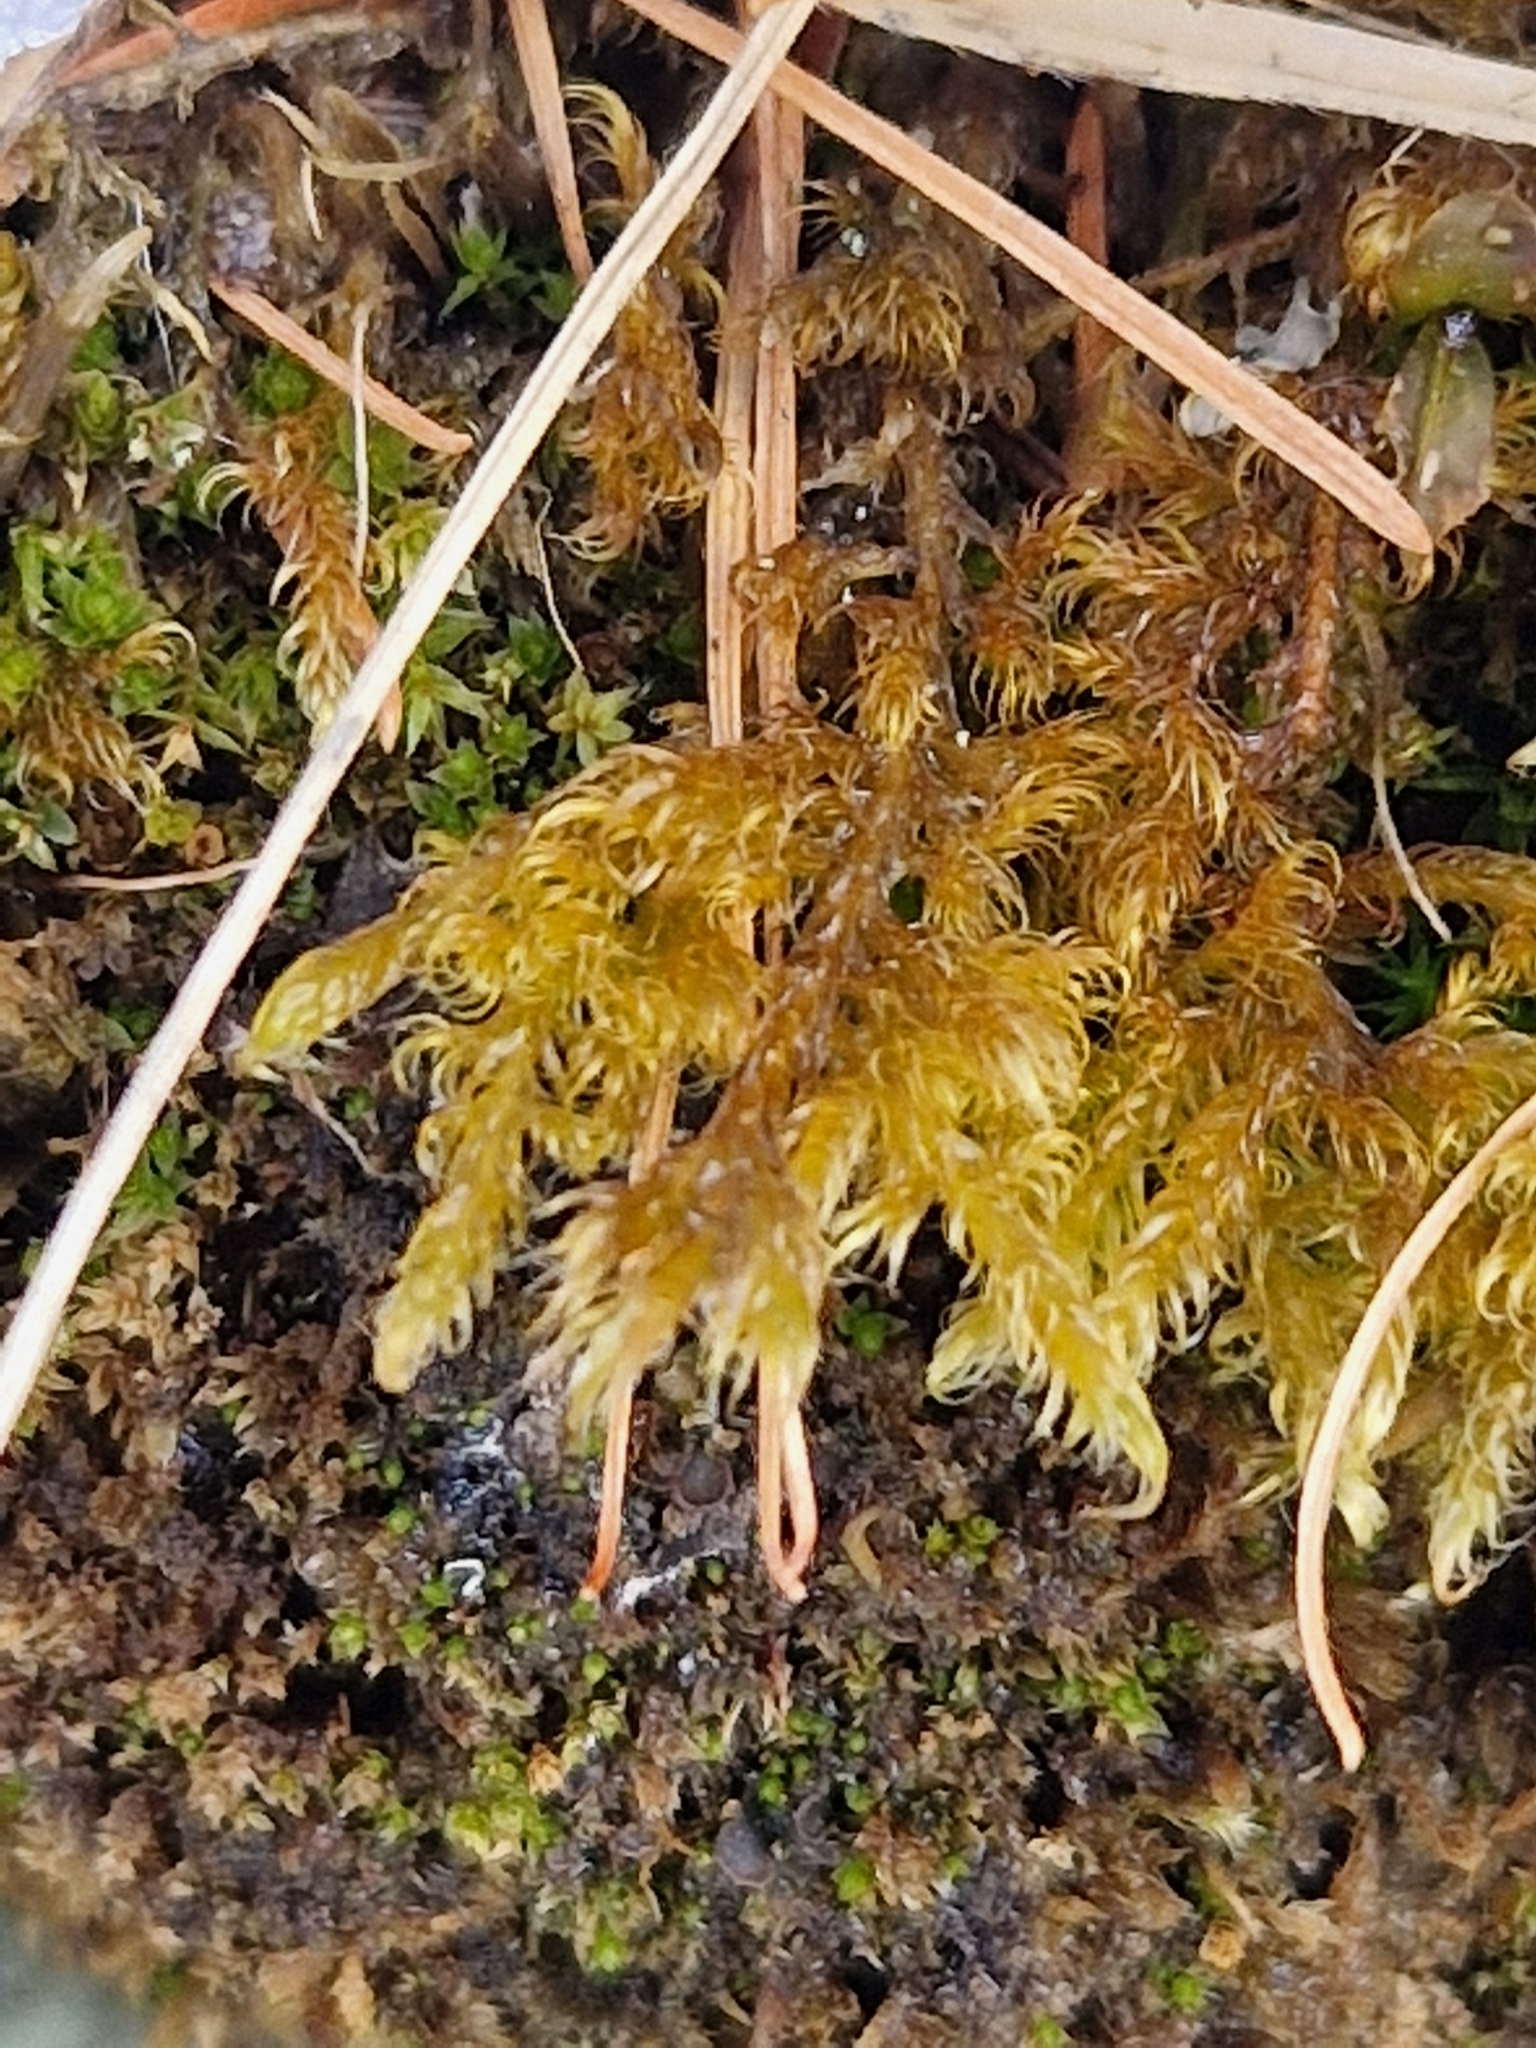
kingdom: Plantae
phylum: Bryophyta
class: Bryopsida
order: Hypnales
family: Scorpidiaceae
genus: Sanionia
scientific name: Sanionia uncinata
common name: Sickle moss
